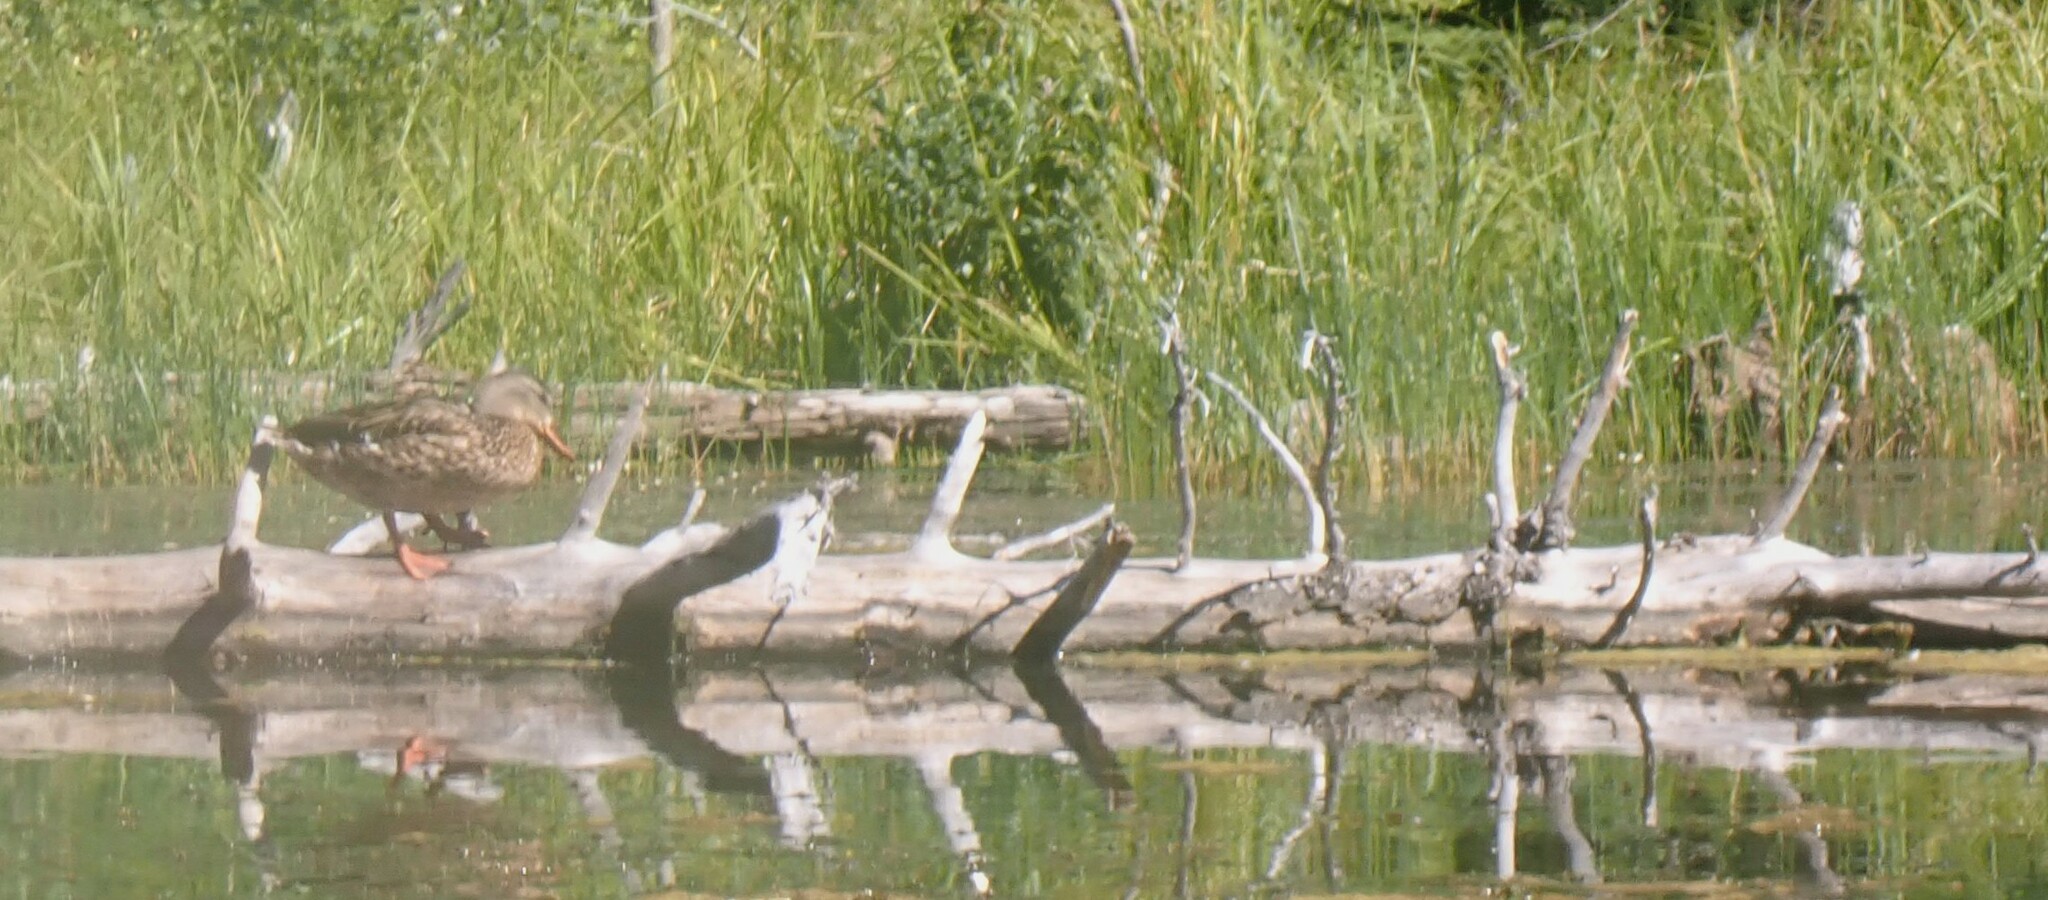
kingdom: Animalia
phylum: Chordata
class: Aves
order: Anseriformes
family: Anatidae
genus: Anas
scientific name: Anas platyrhynchos
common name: Mallard
